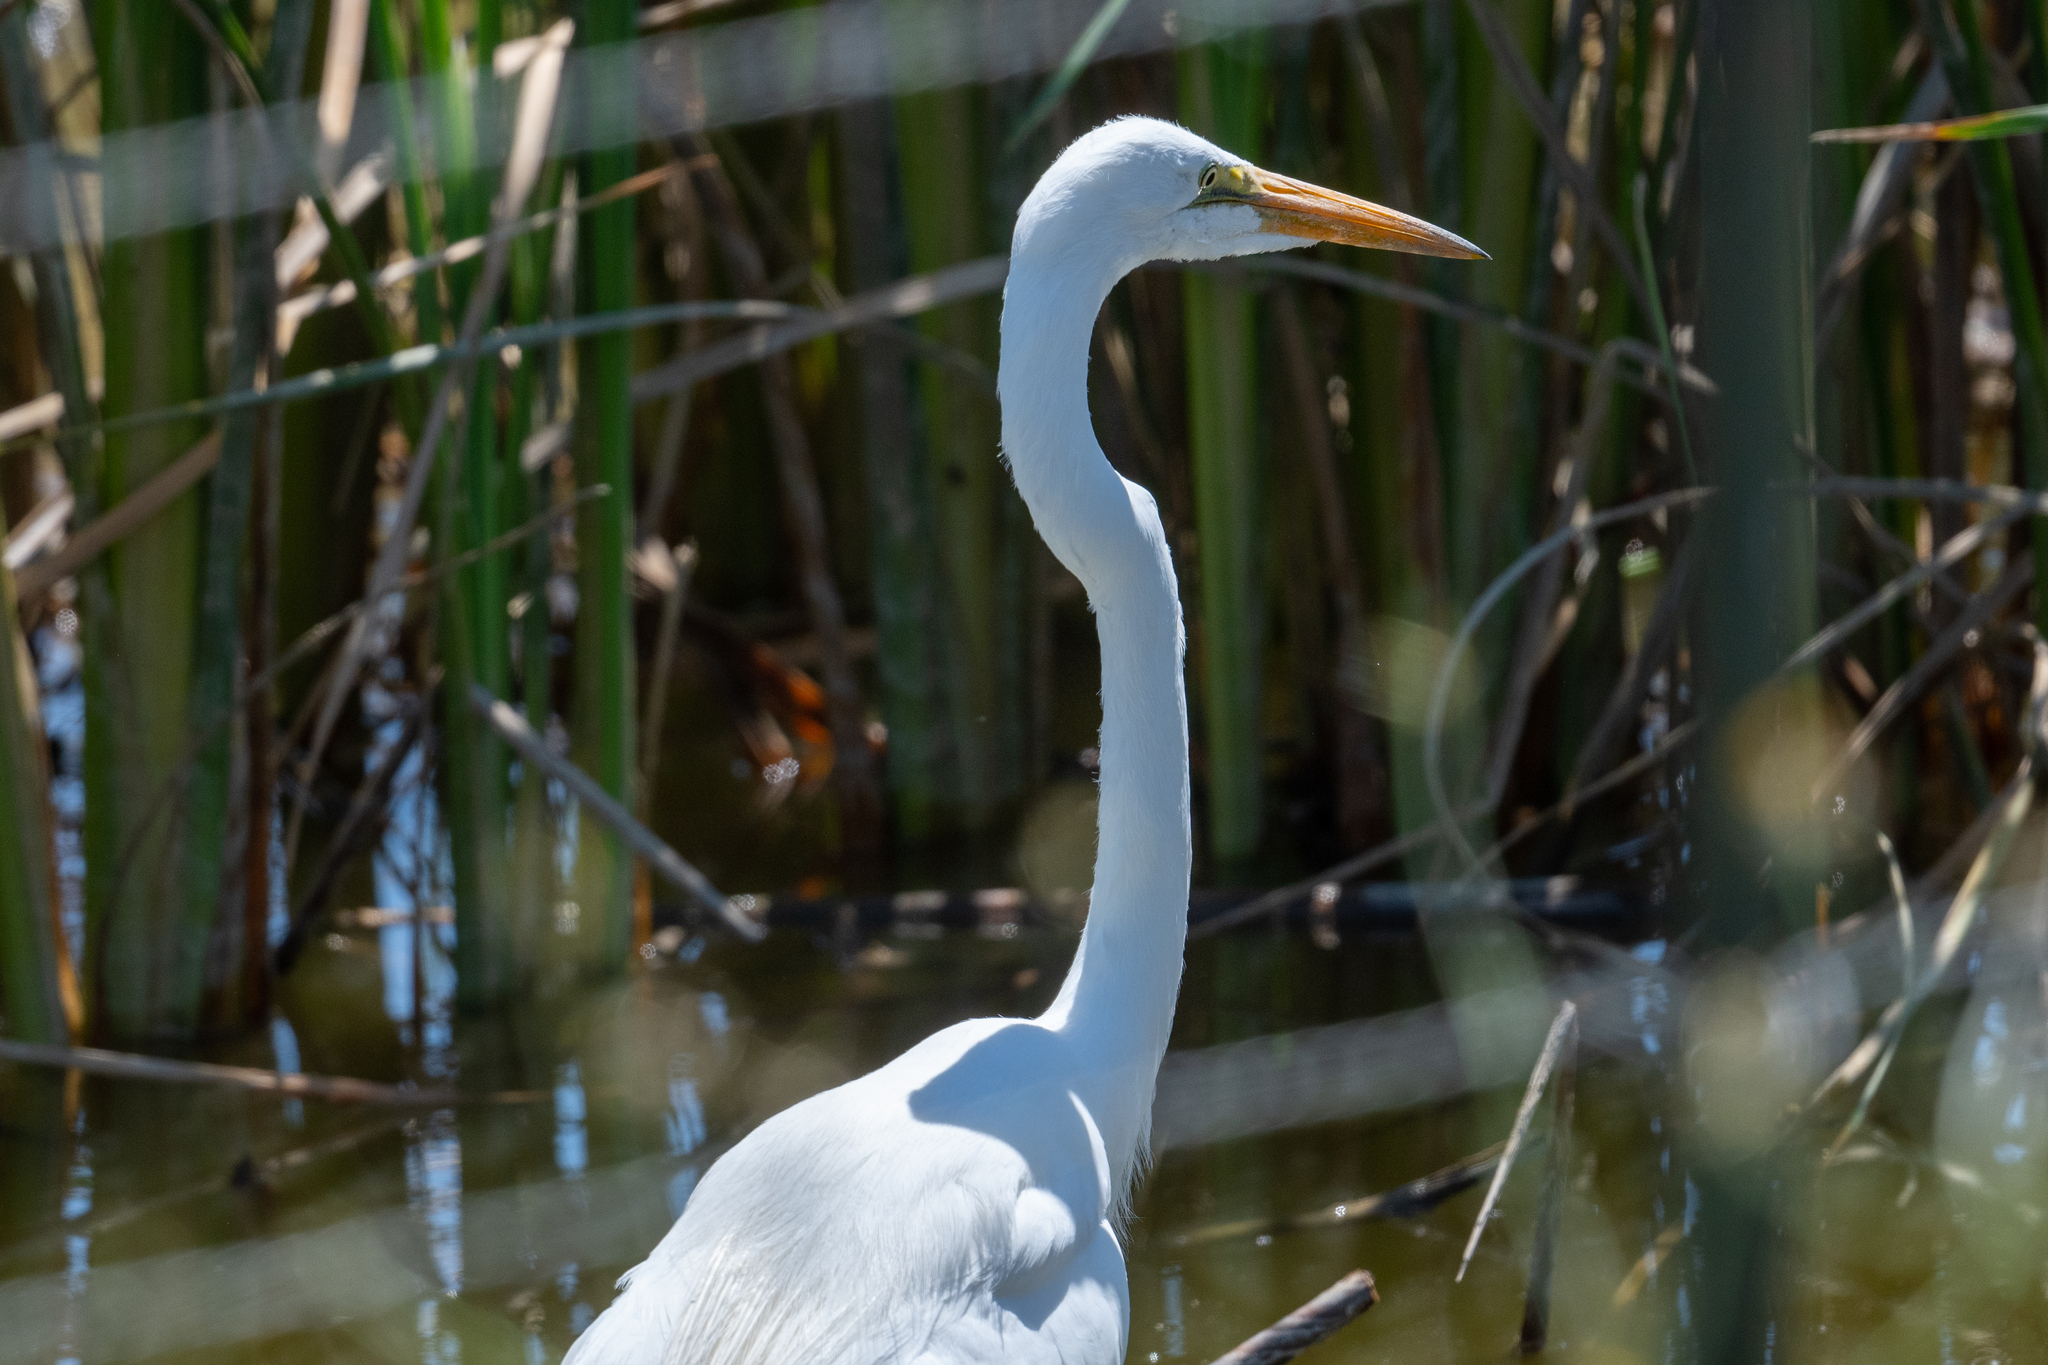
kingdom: Animalia
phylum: Chordata
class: Aves
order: Pelecaniformes
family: Ardeidae
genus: Ardea
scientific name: Ardea alba
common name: Great egret
